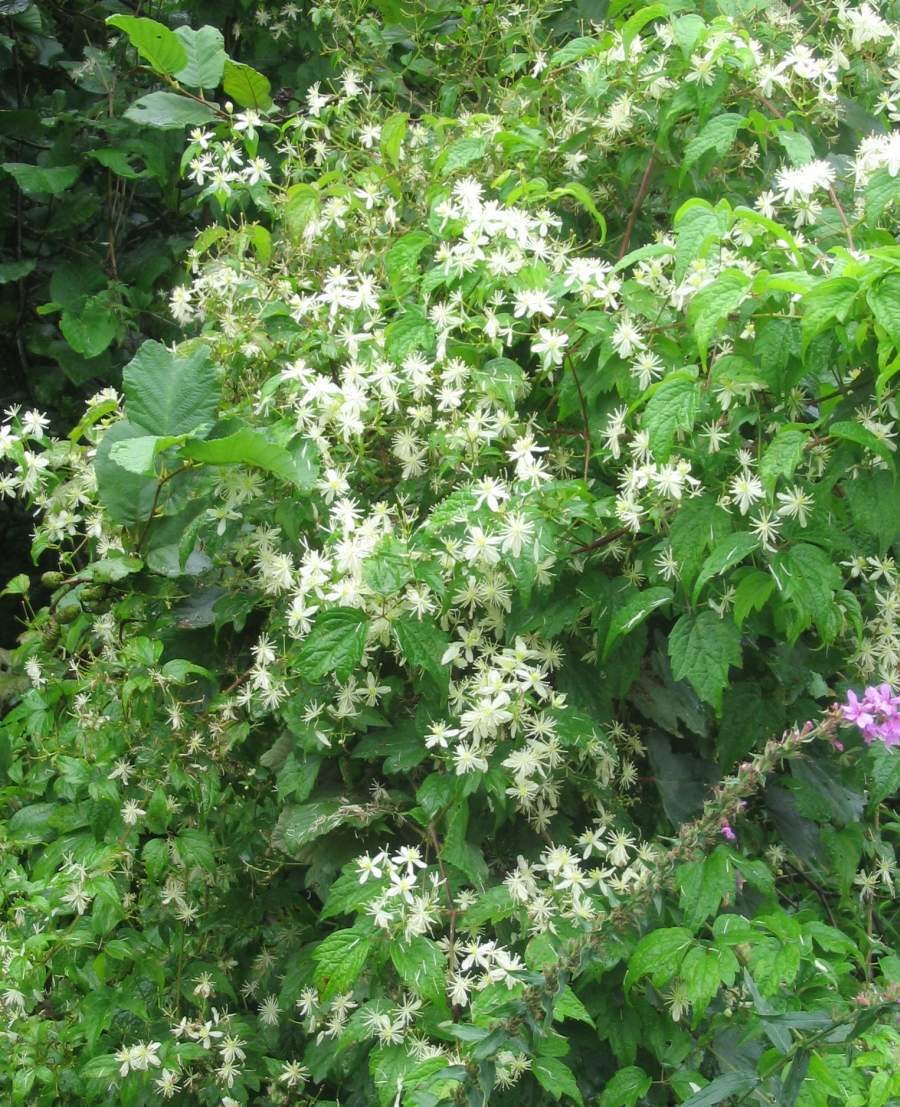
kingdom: Plantae
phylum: Tracheophyta
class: Magnoliopsida
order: Ranunculales
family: Ranunculaceae
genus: Clematis
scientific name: Clematis virginiana
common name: Virgin's-bower
